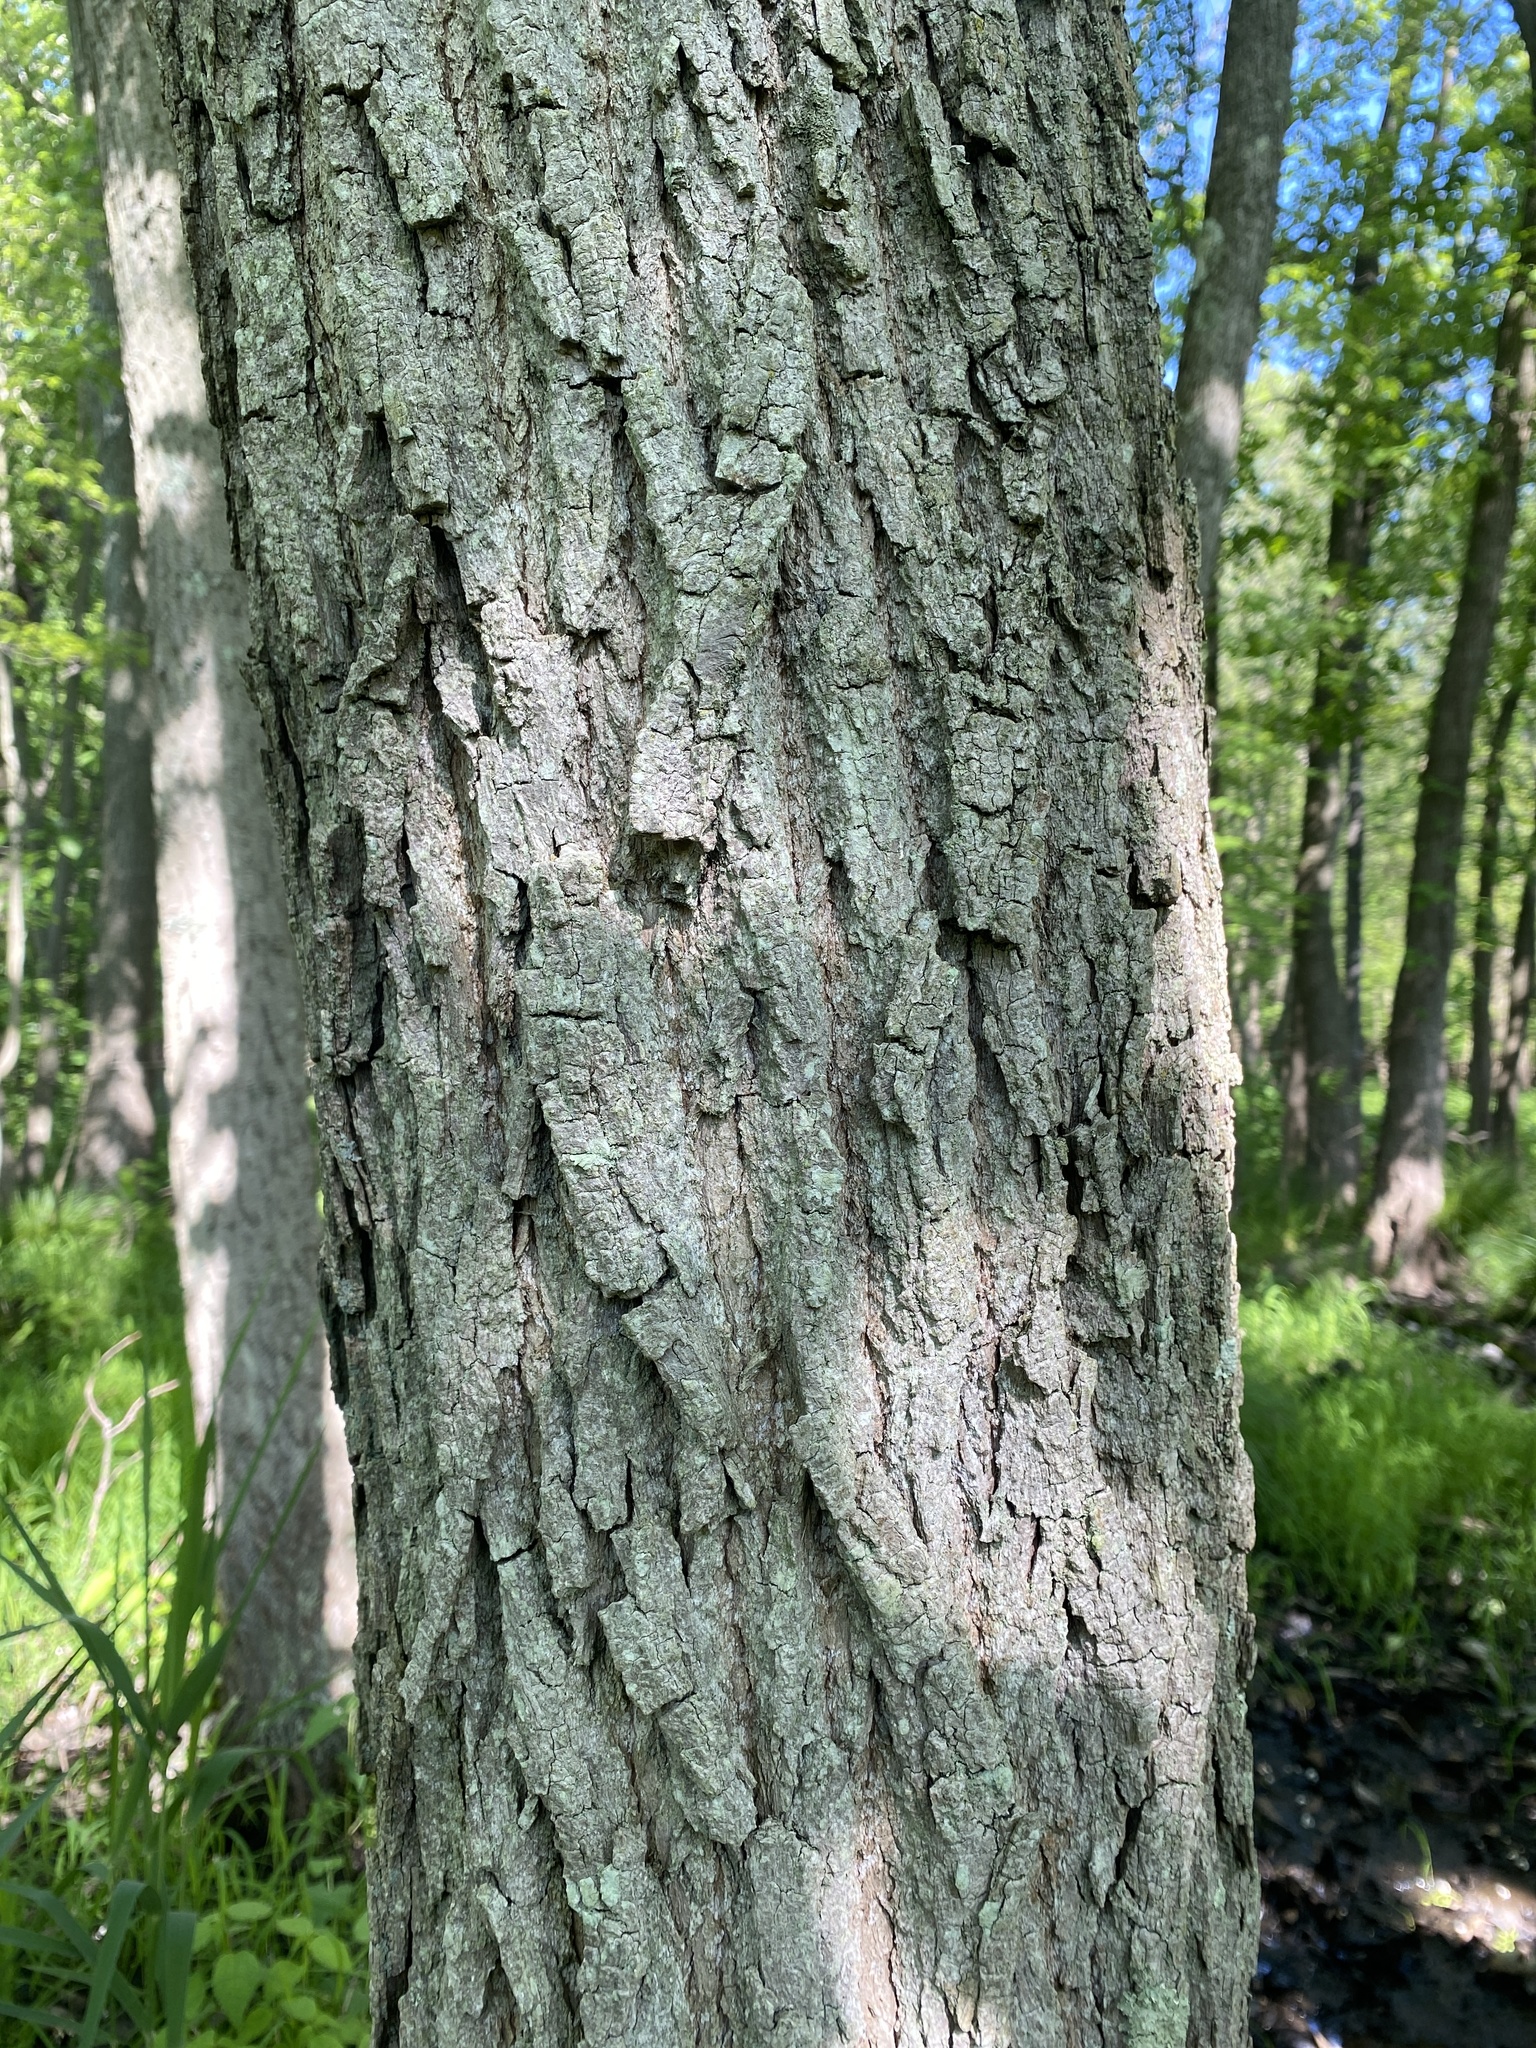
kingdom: Plantae
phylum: Tracheophyta
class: Magnoliopsida
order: Malpighiales
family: Salicaceae
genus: Populus
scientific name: Populus heterophylla
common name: Downy poplar
